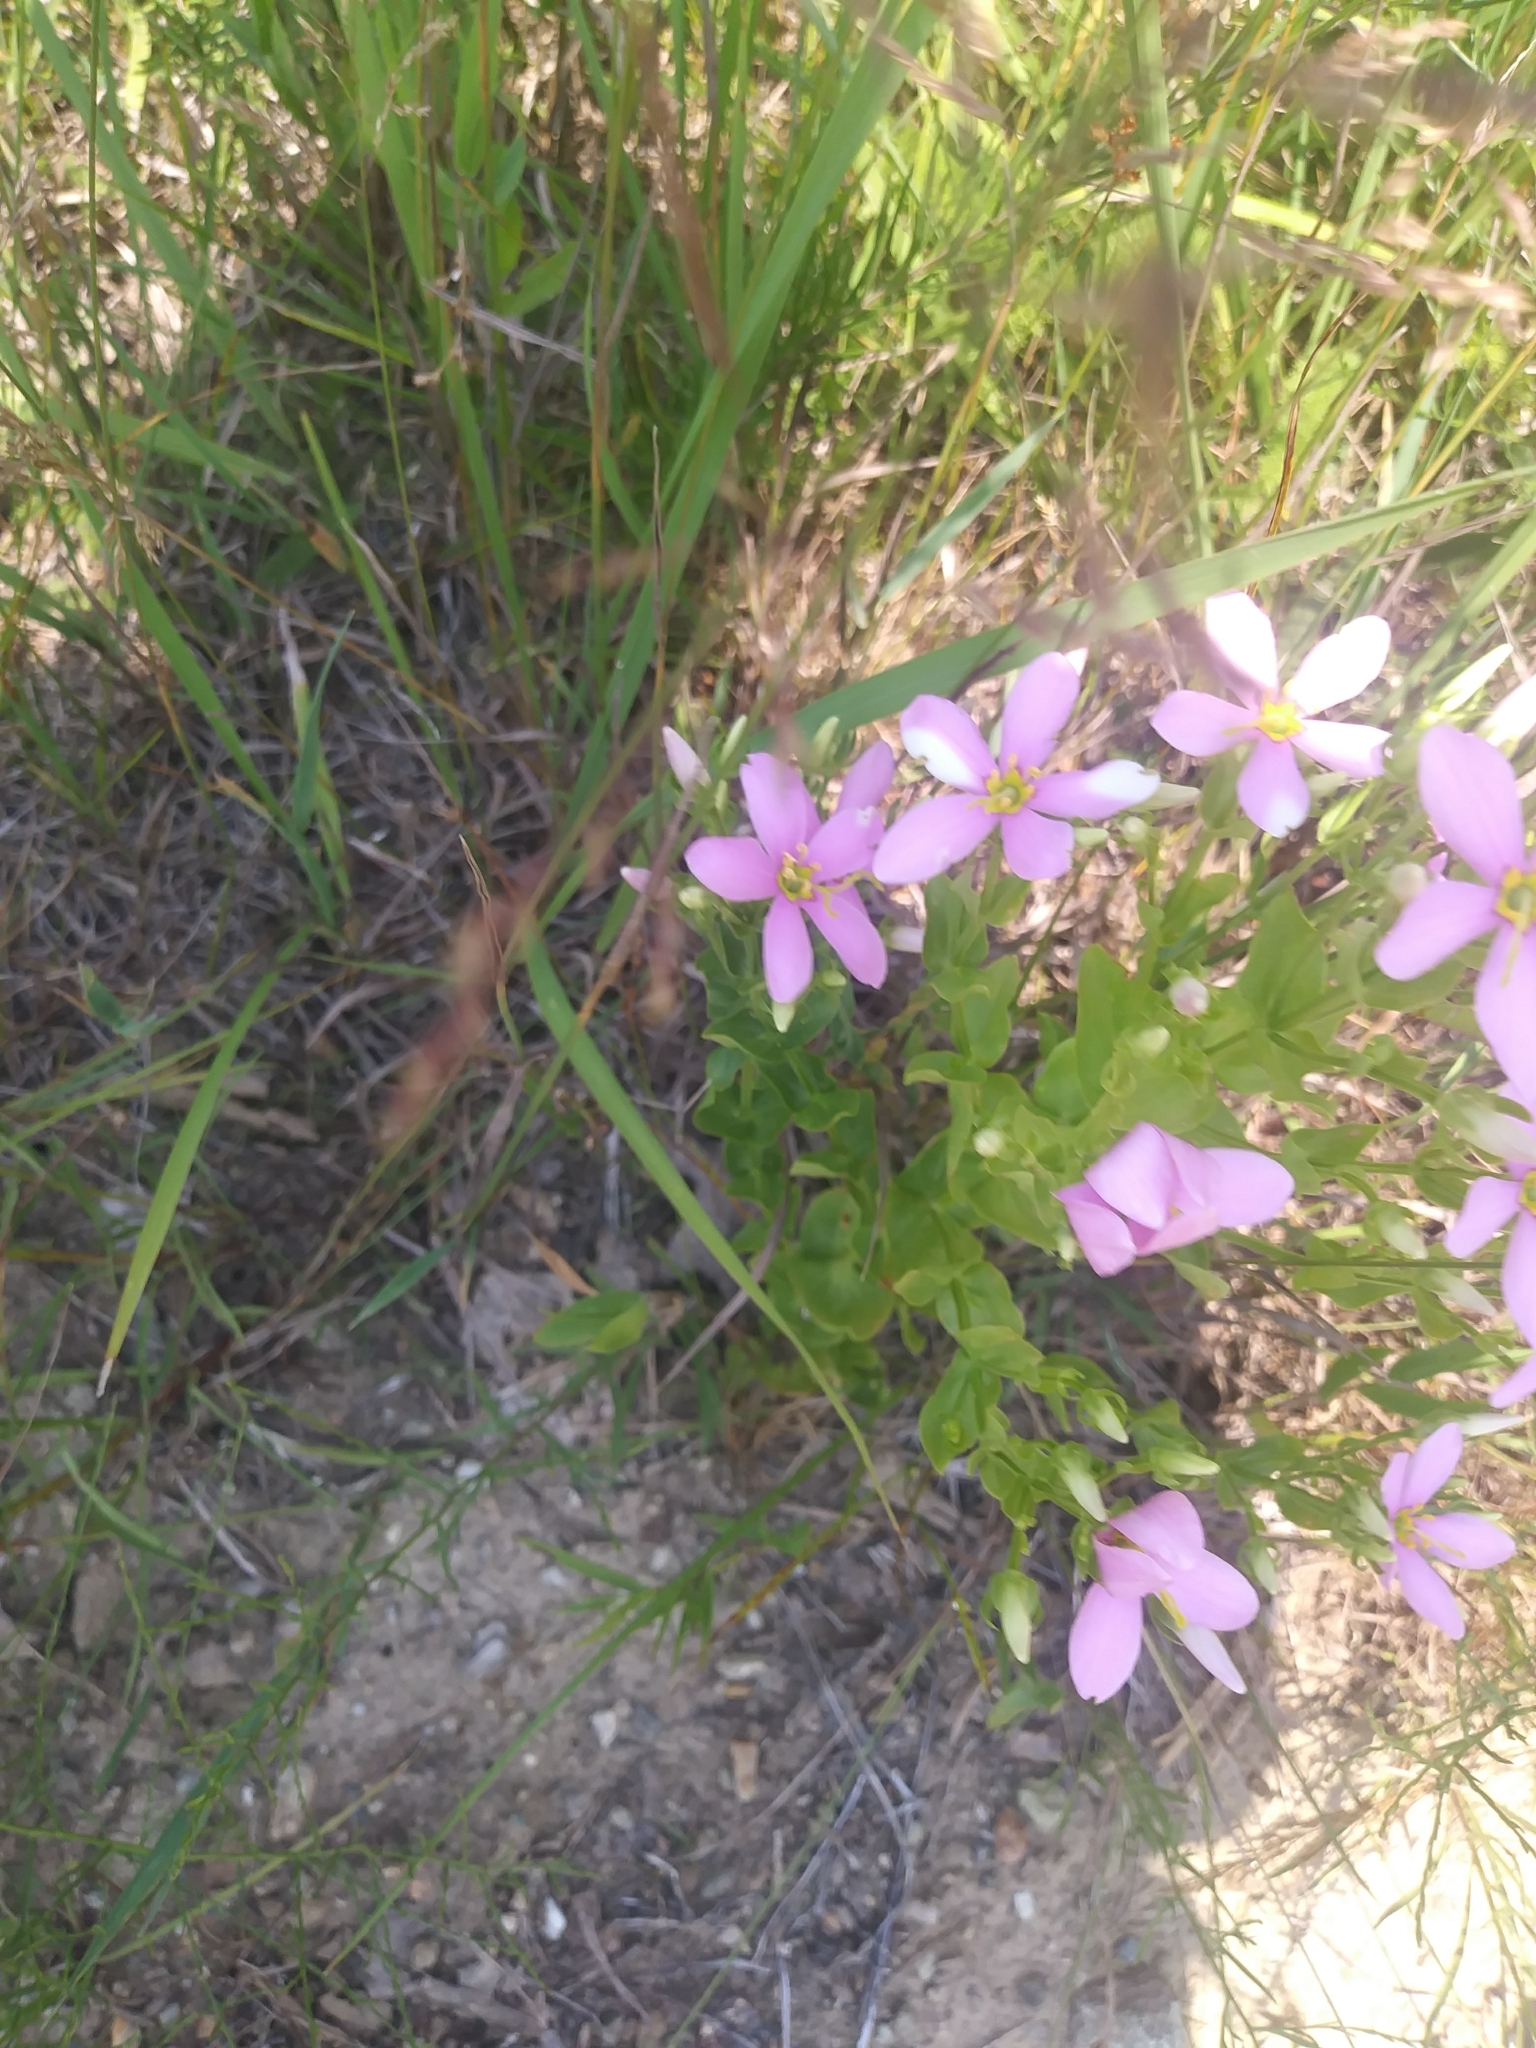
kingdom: Plantae
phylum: Tracheophyta
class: Magnoliopsida
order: Gentianales
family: Gentianaceae
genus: Sabatia
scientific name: Sabatia angularis
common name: Rose-pink
